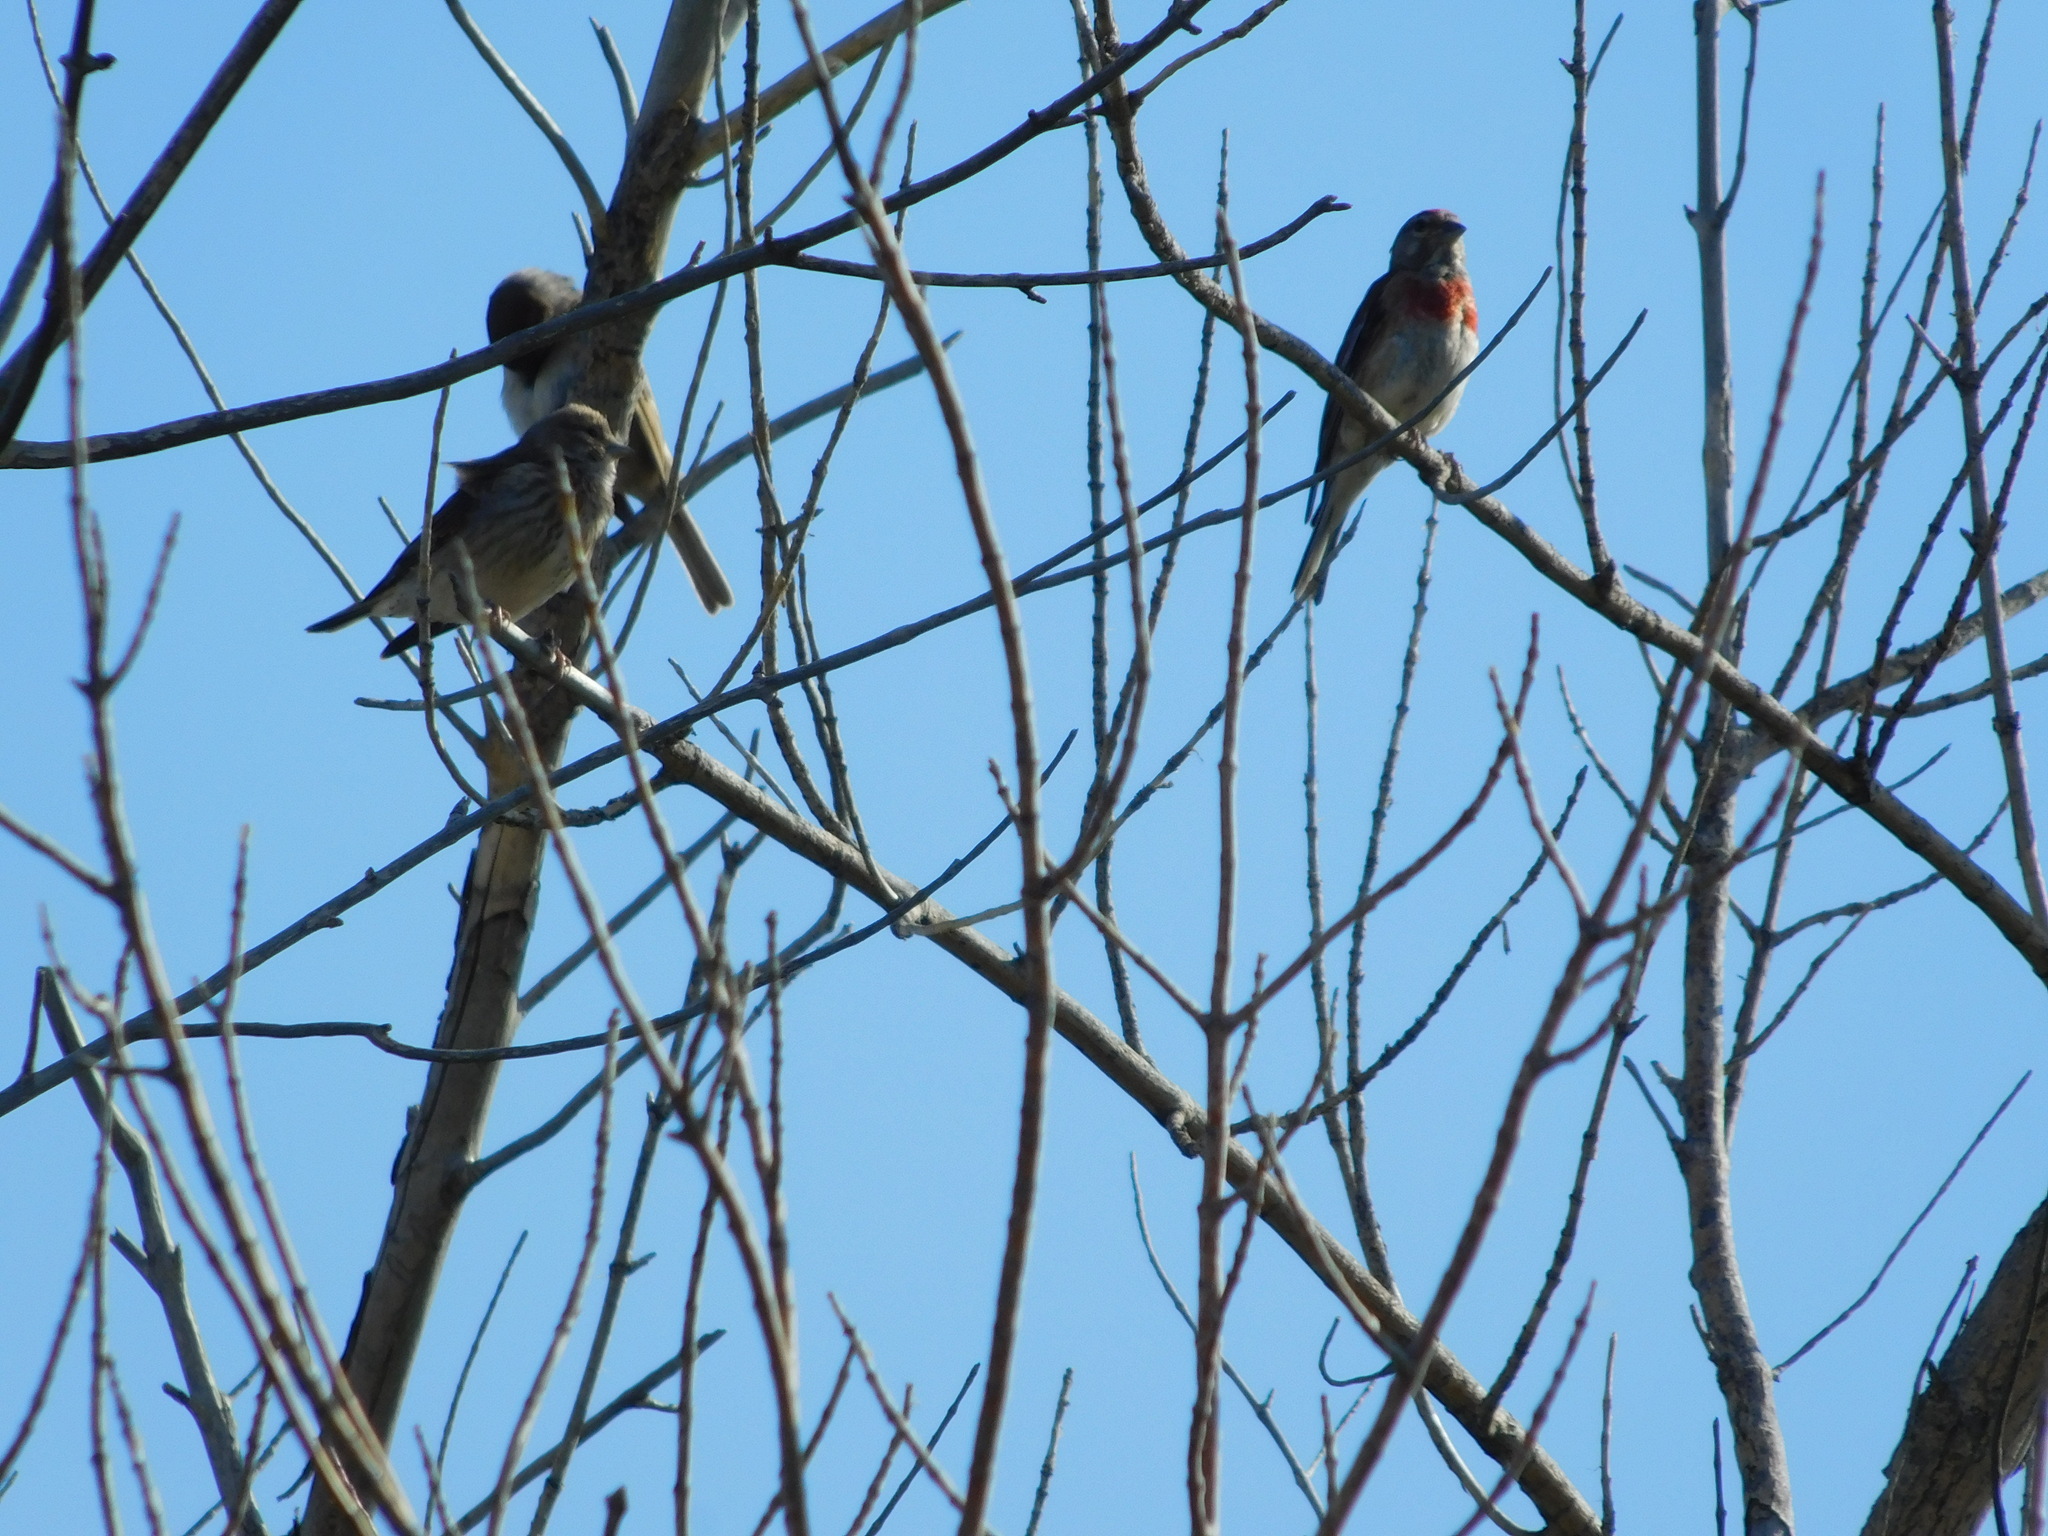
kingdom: Animalia
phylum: Chordata
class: Aves
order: Passeriformes
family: Fringillidae
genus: Linaria
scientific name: Linaria cannabina
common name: Common linnet
